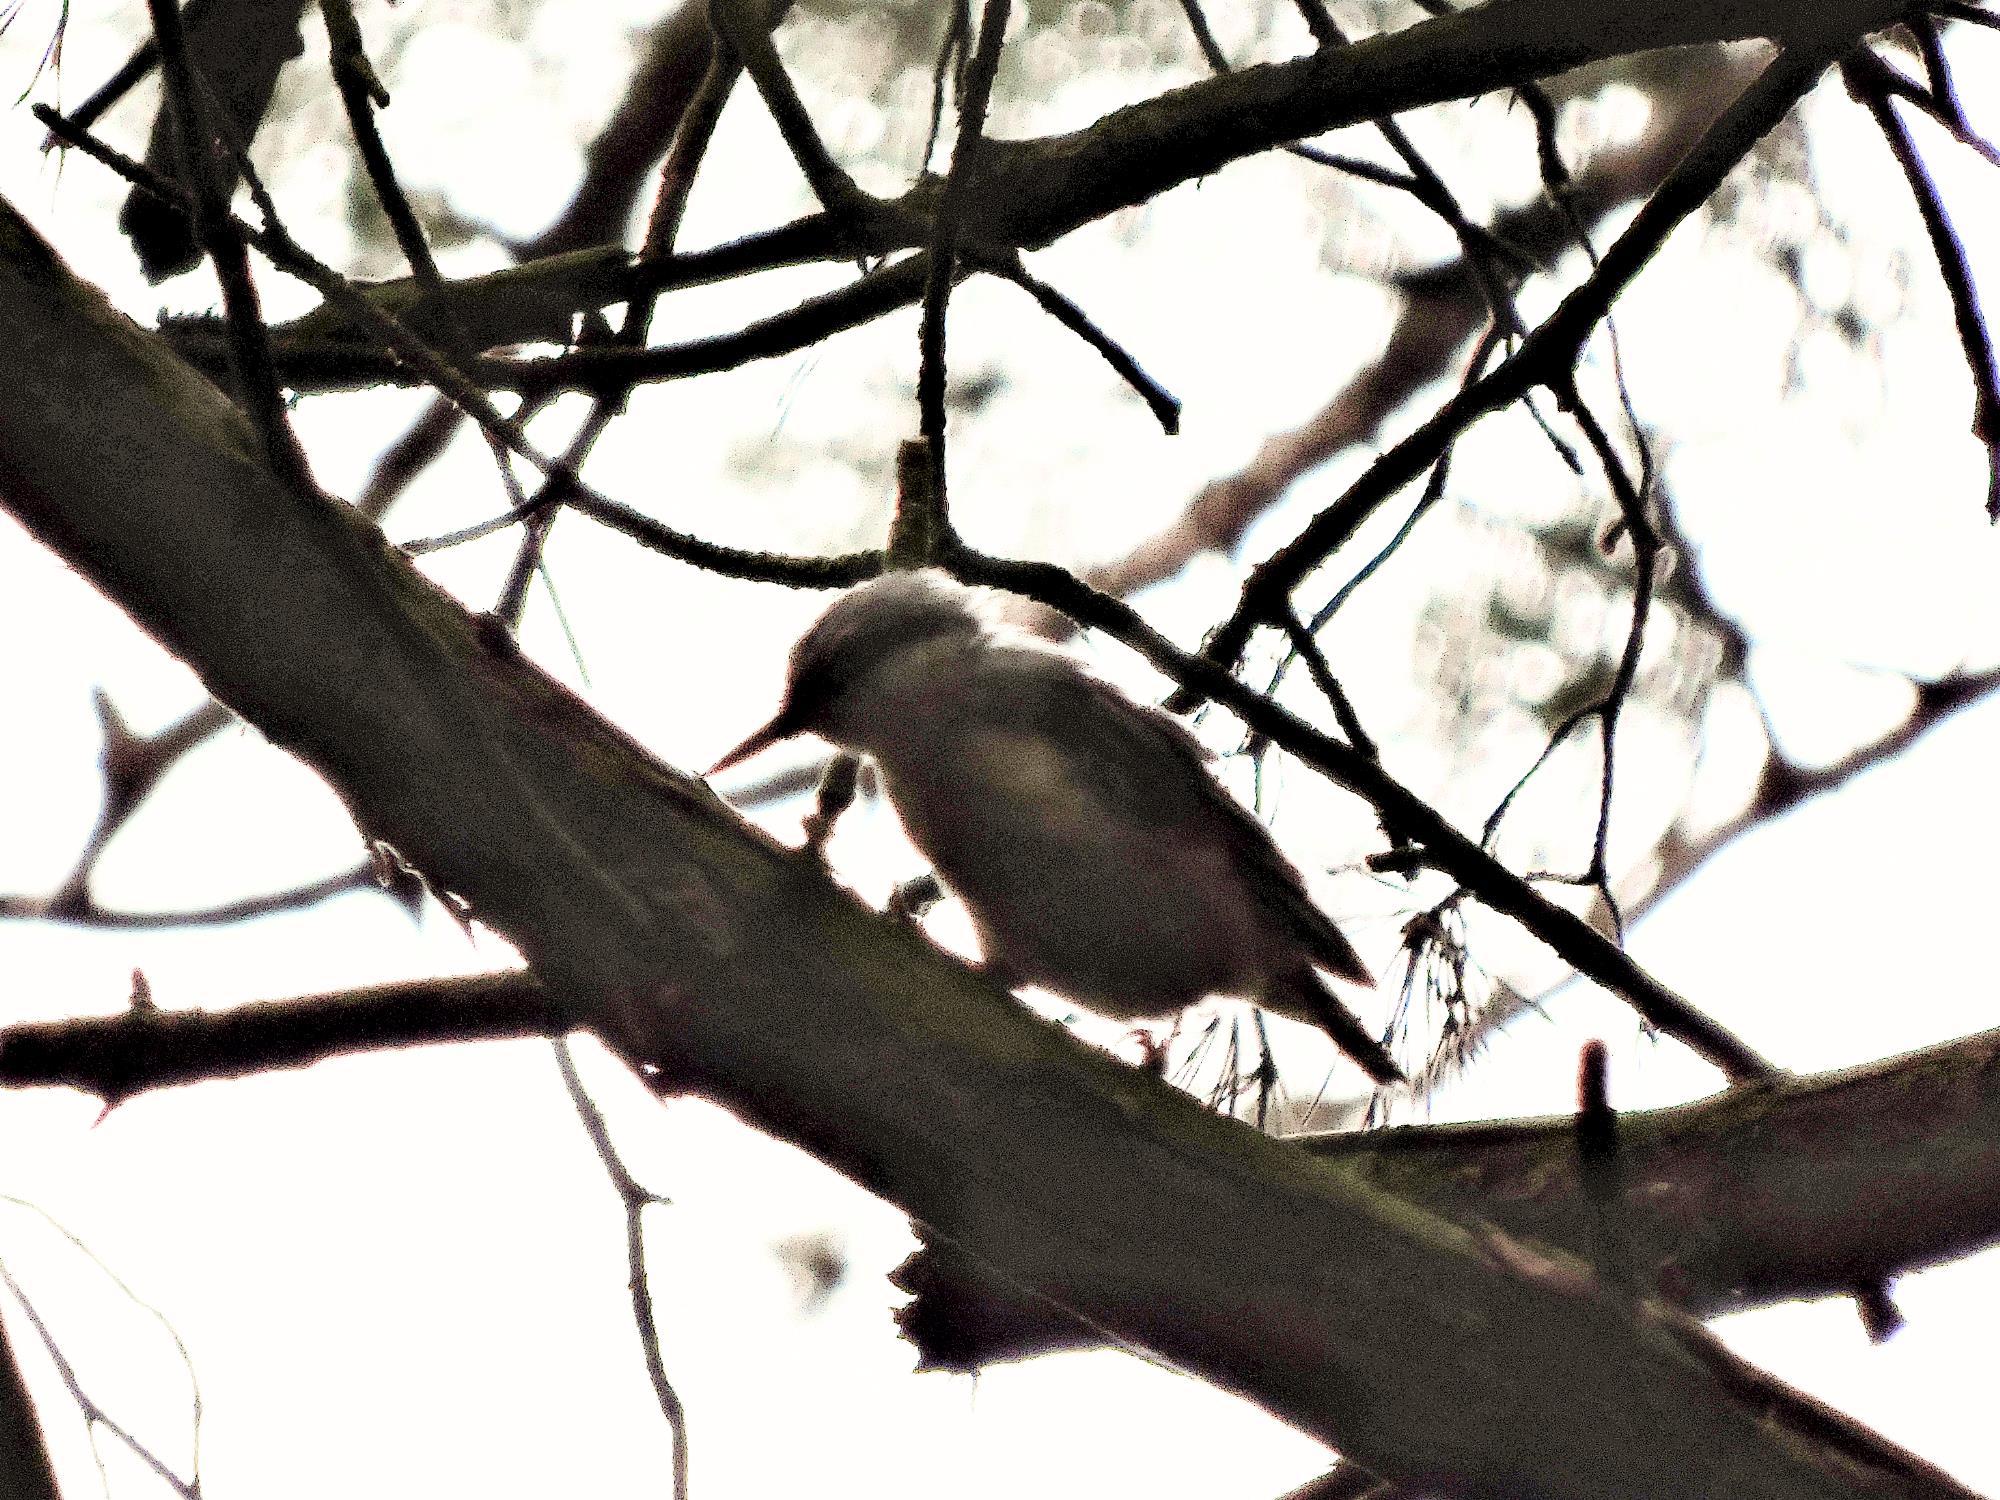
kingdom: Animalia
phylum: Chordata
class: Aves
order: Passeriformes
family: Sittidae
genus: Sitta
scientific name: Sitta europaea
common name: Eurasian nuthatch
